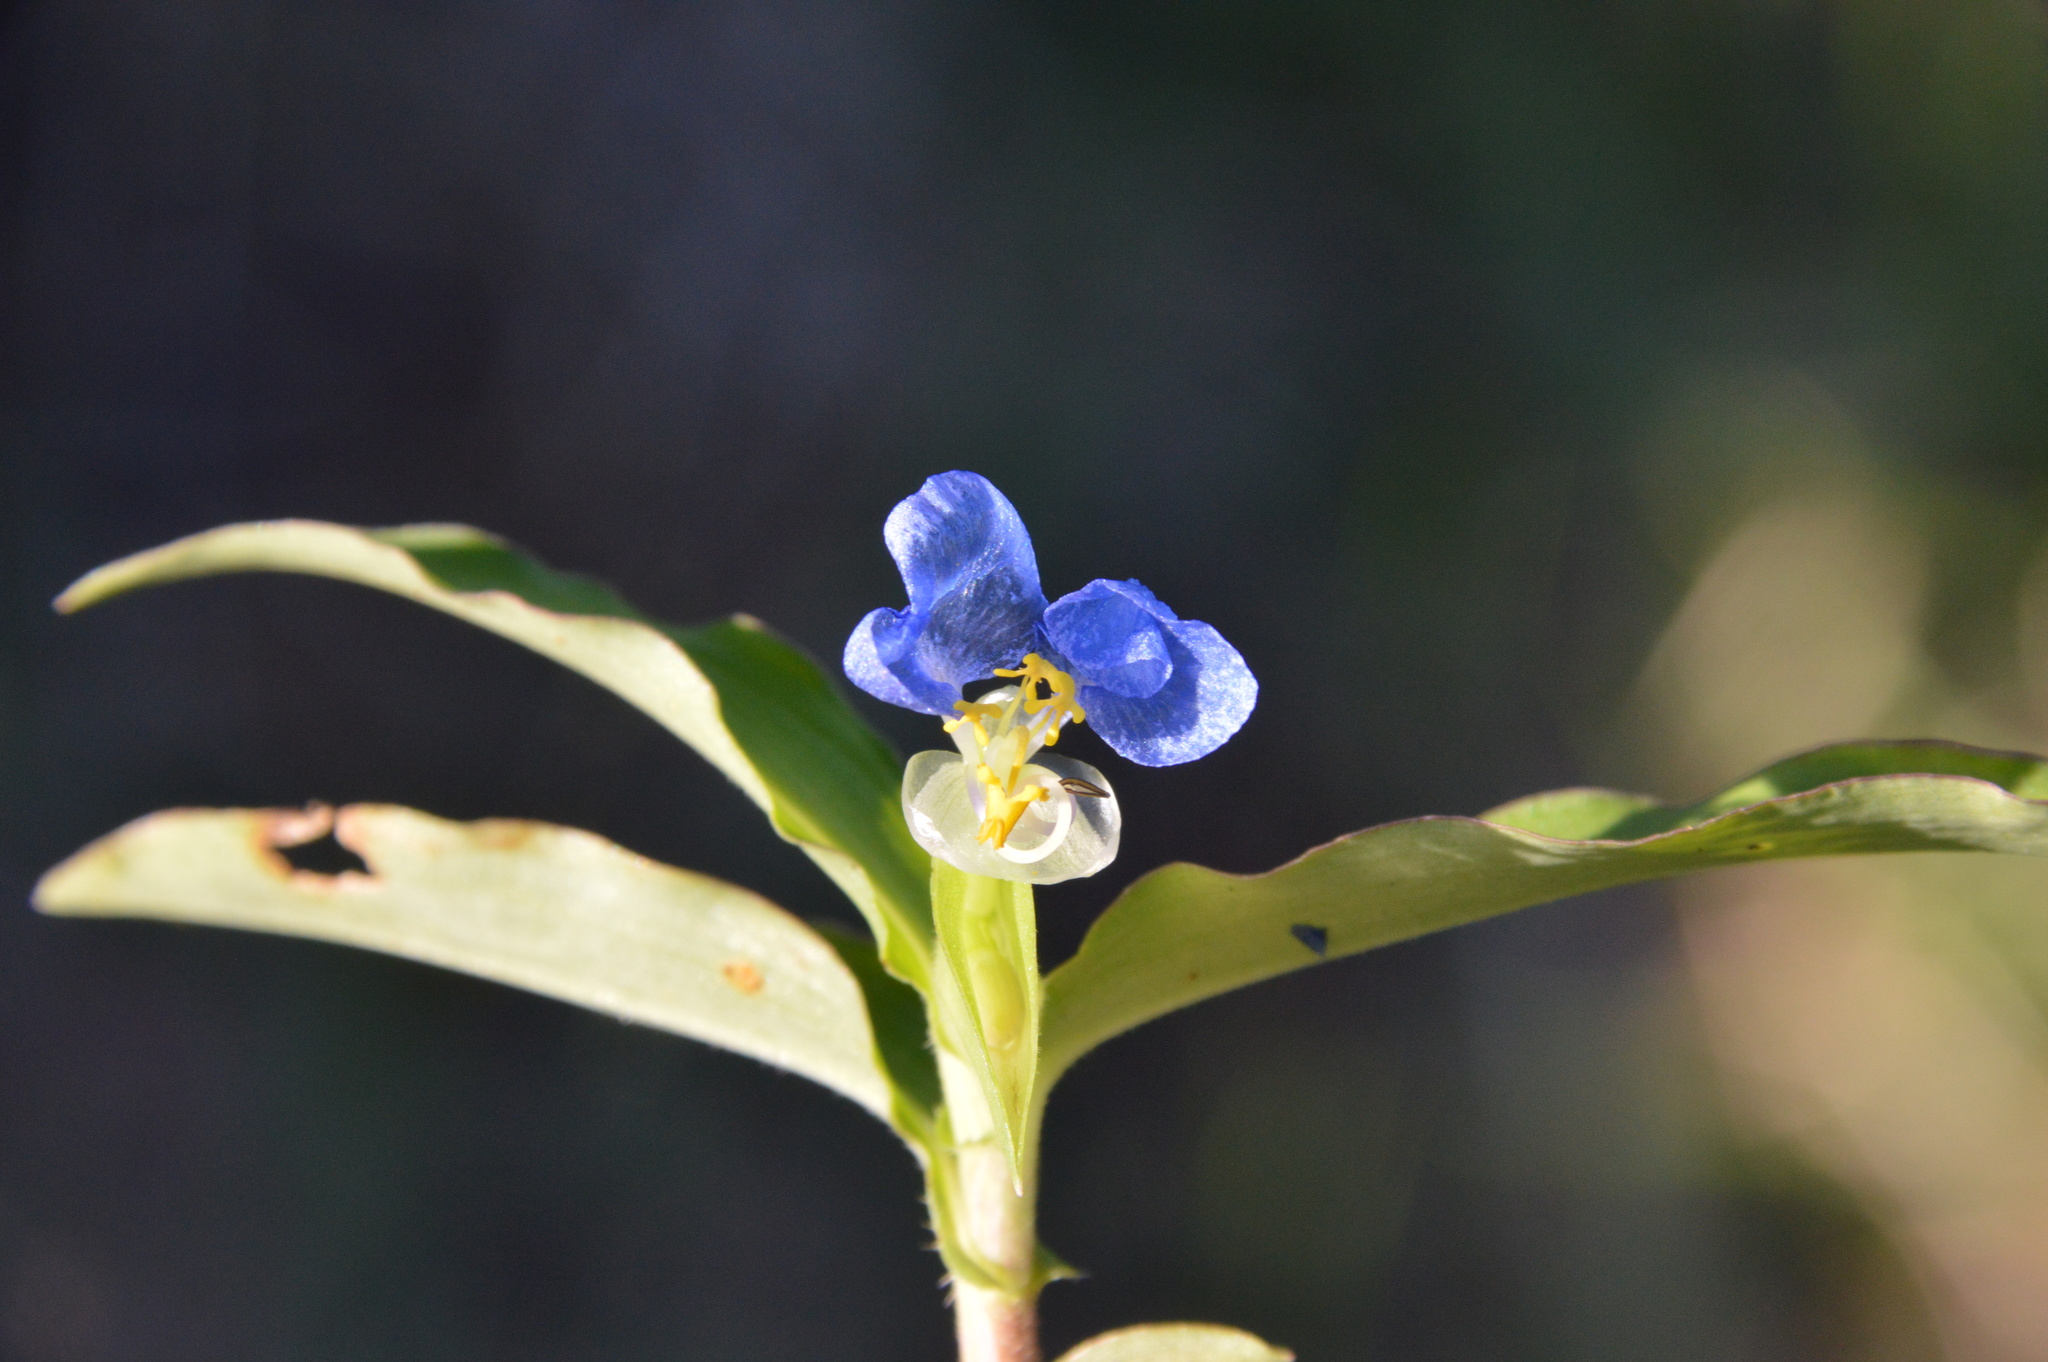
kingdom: Plantae
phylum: Tracheophyta
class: Liliopsida
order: Commelinales
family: Commelinaceae
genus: Commelina
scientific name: Commelina erecta
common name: Blousel blommetjie
